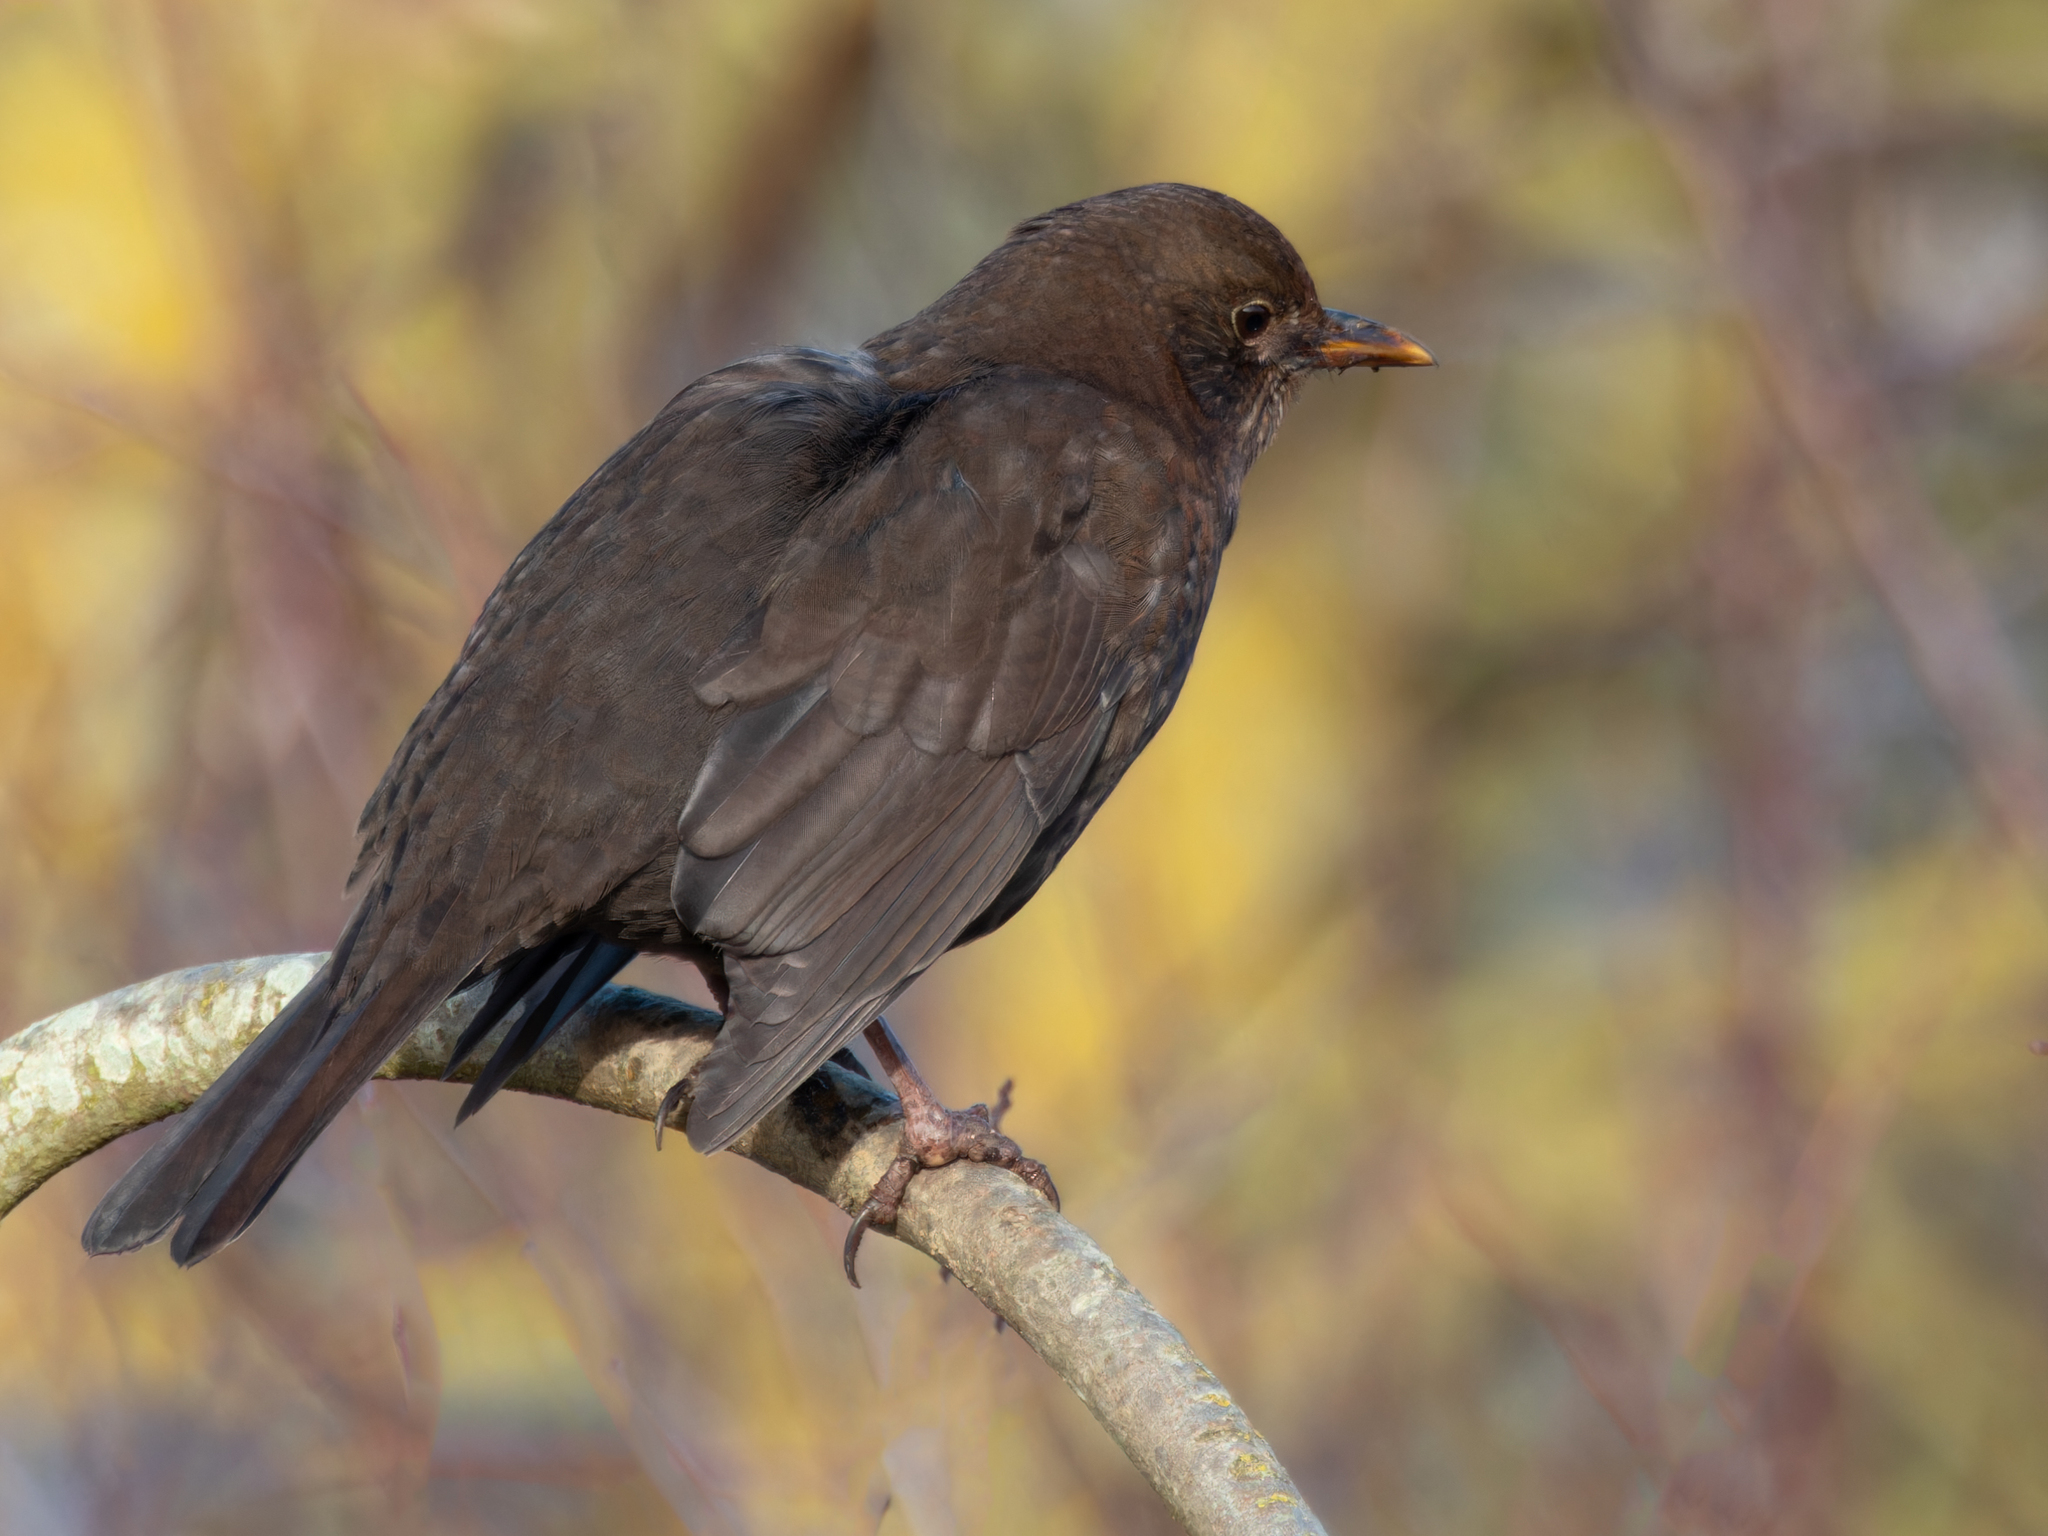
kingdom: Animalia
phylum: Chordata
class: Aves
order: Passeriformes
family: Turdidae
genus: Turdus
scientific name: Turdus merula
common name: Common blackbird
